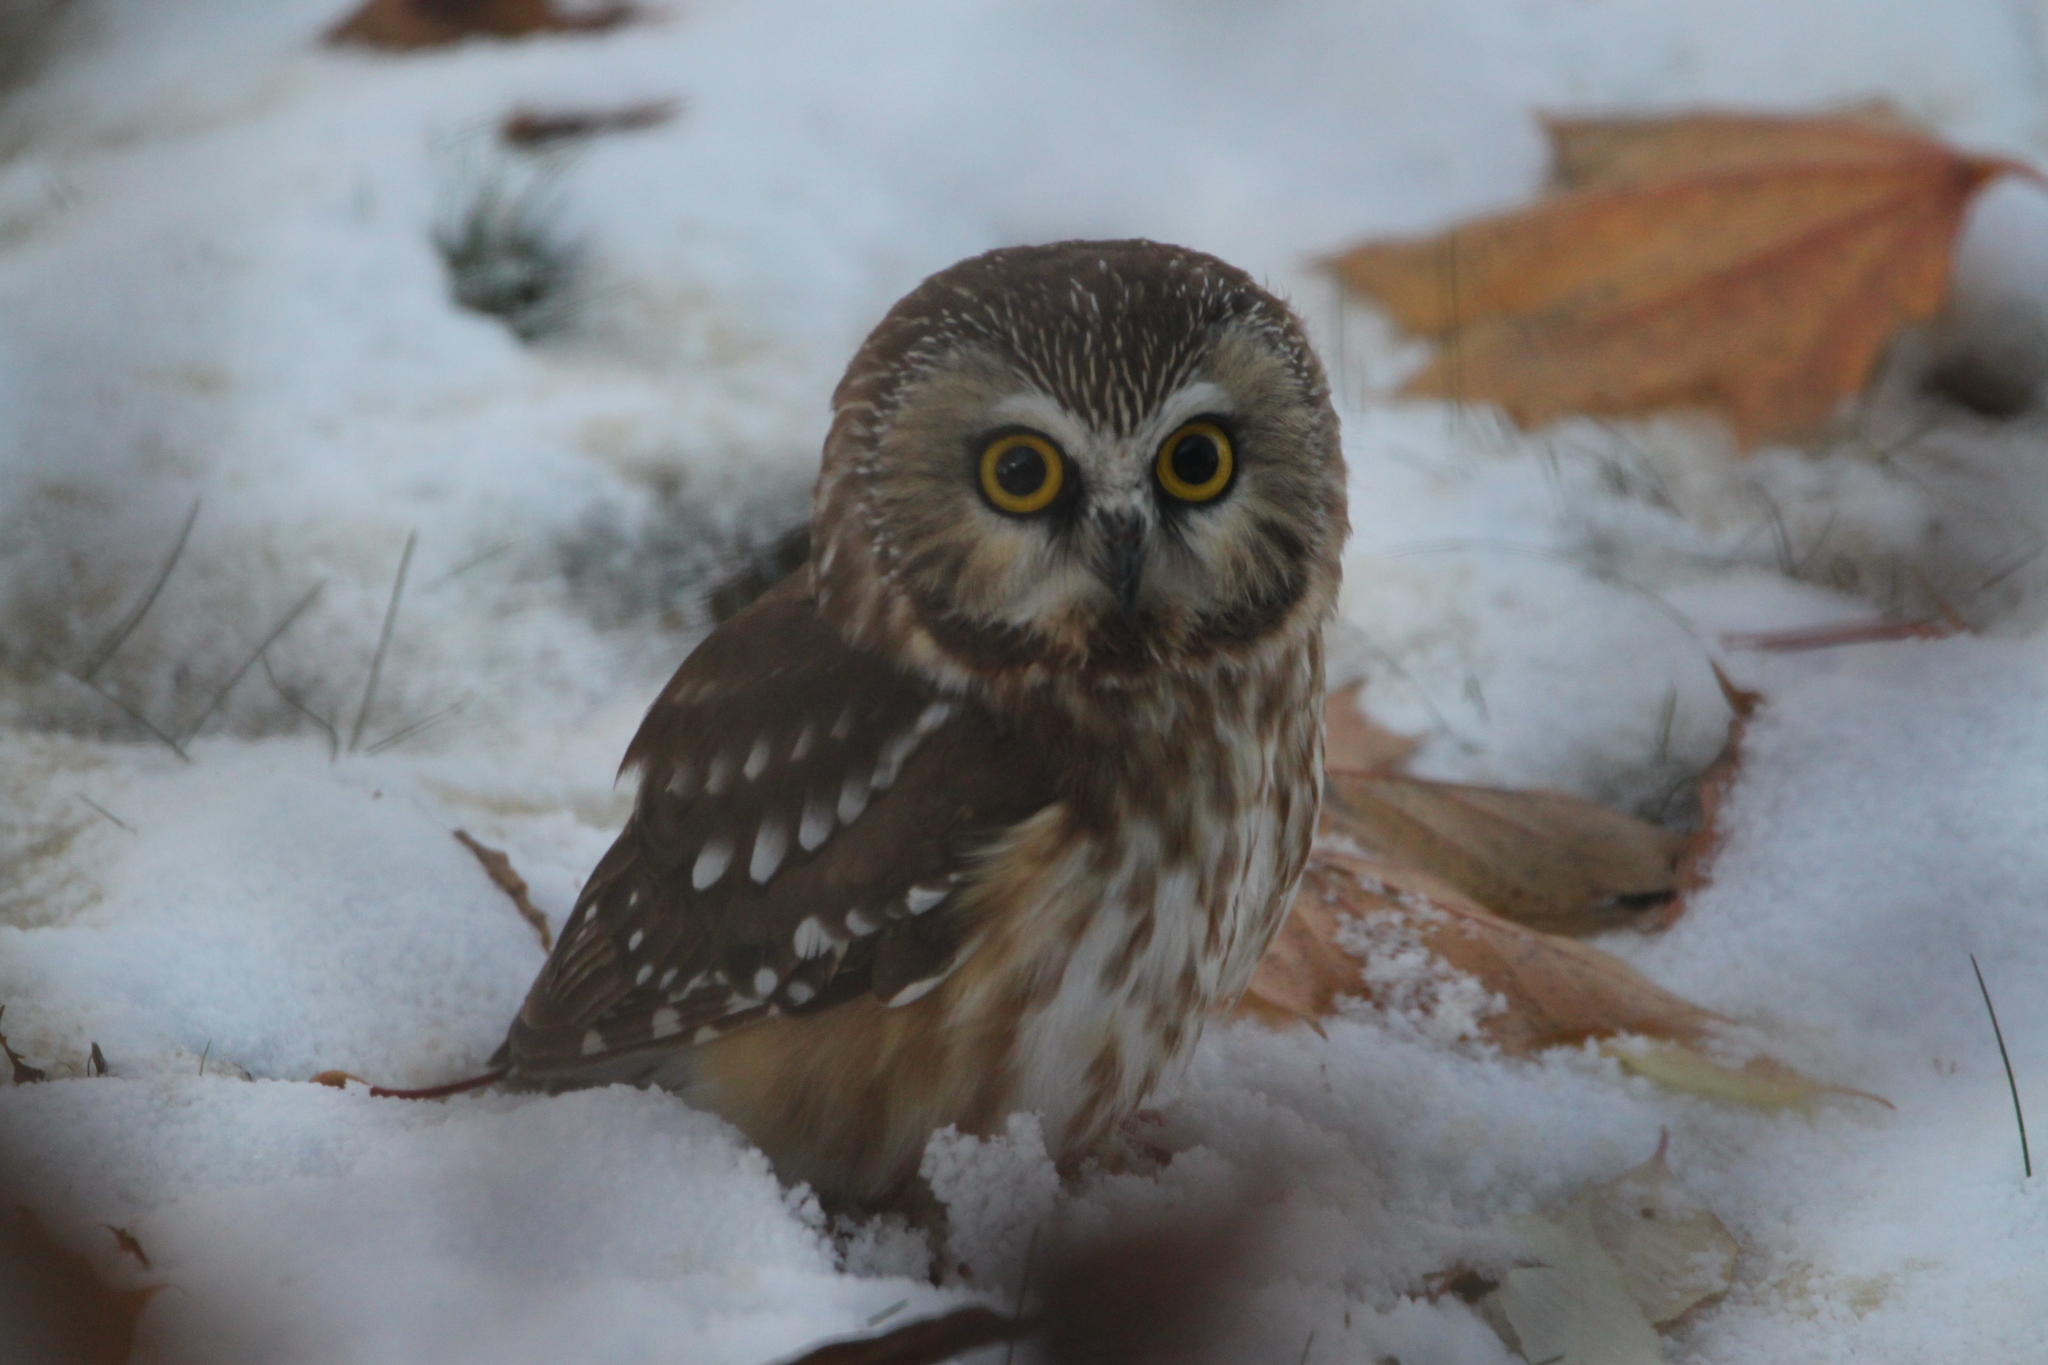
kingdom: Animalia
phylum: Chordata
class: Aves
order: Strigiformes
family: Strigidae
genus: Aegolius
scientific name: Aegolius acadicus
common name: Northern saw-whet owl
